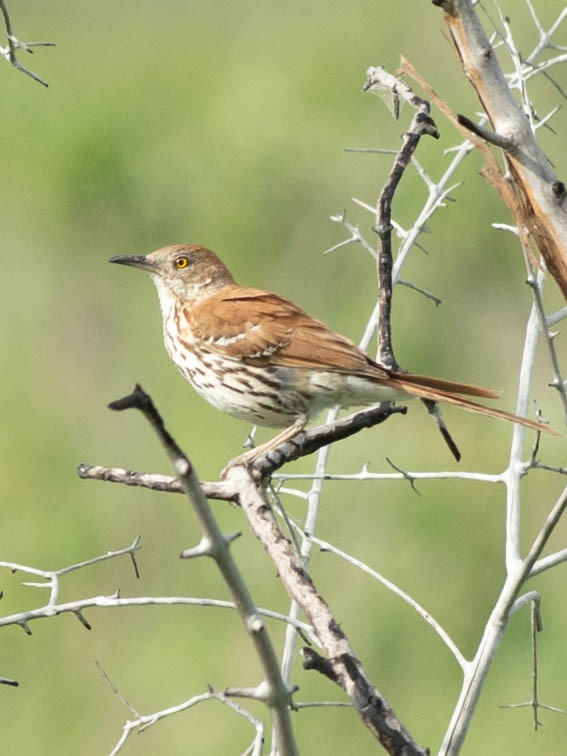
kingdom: Animalia
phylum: Chordata
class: Aves
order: Passeriformes
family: Mimidae
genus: Toxostoma
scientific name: Toxostoma rufum
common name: Brown thrasher
